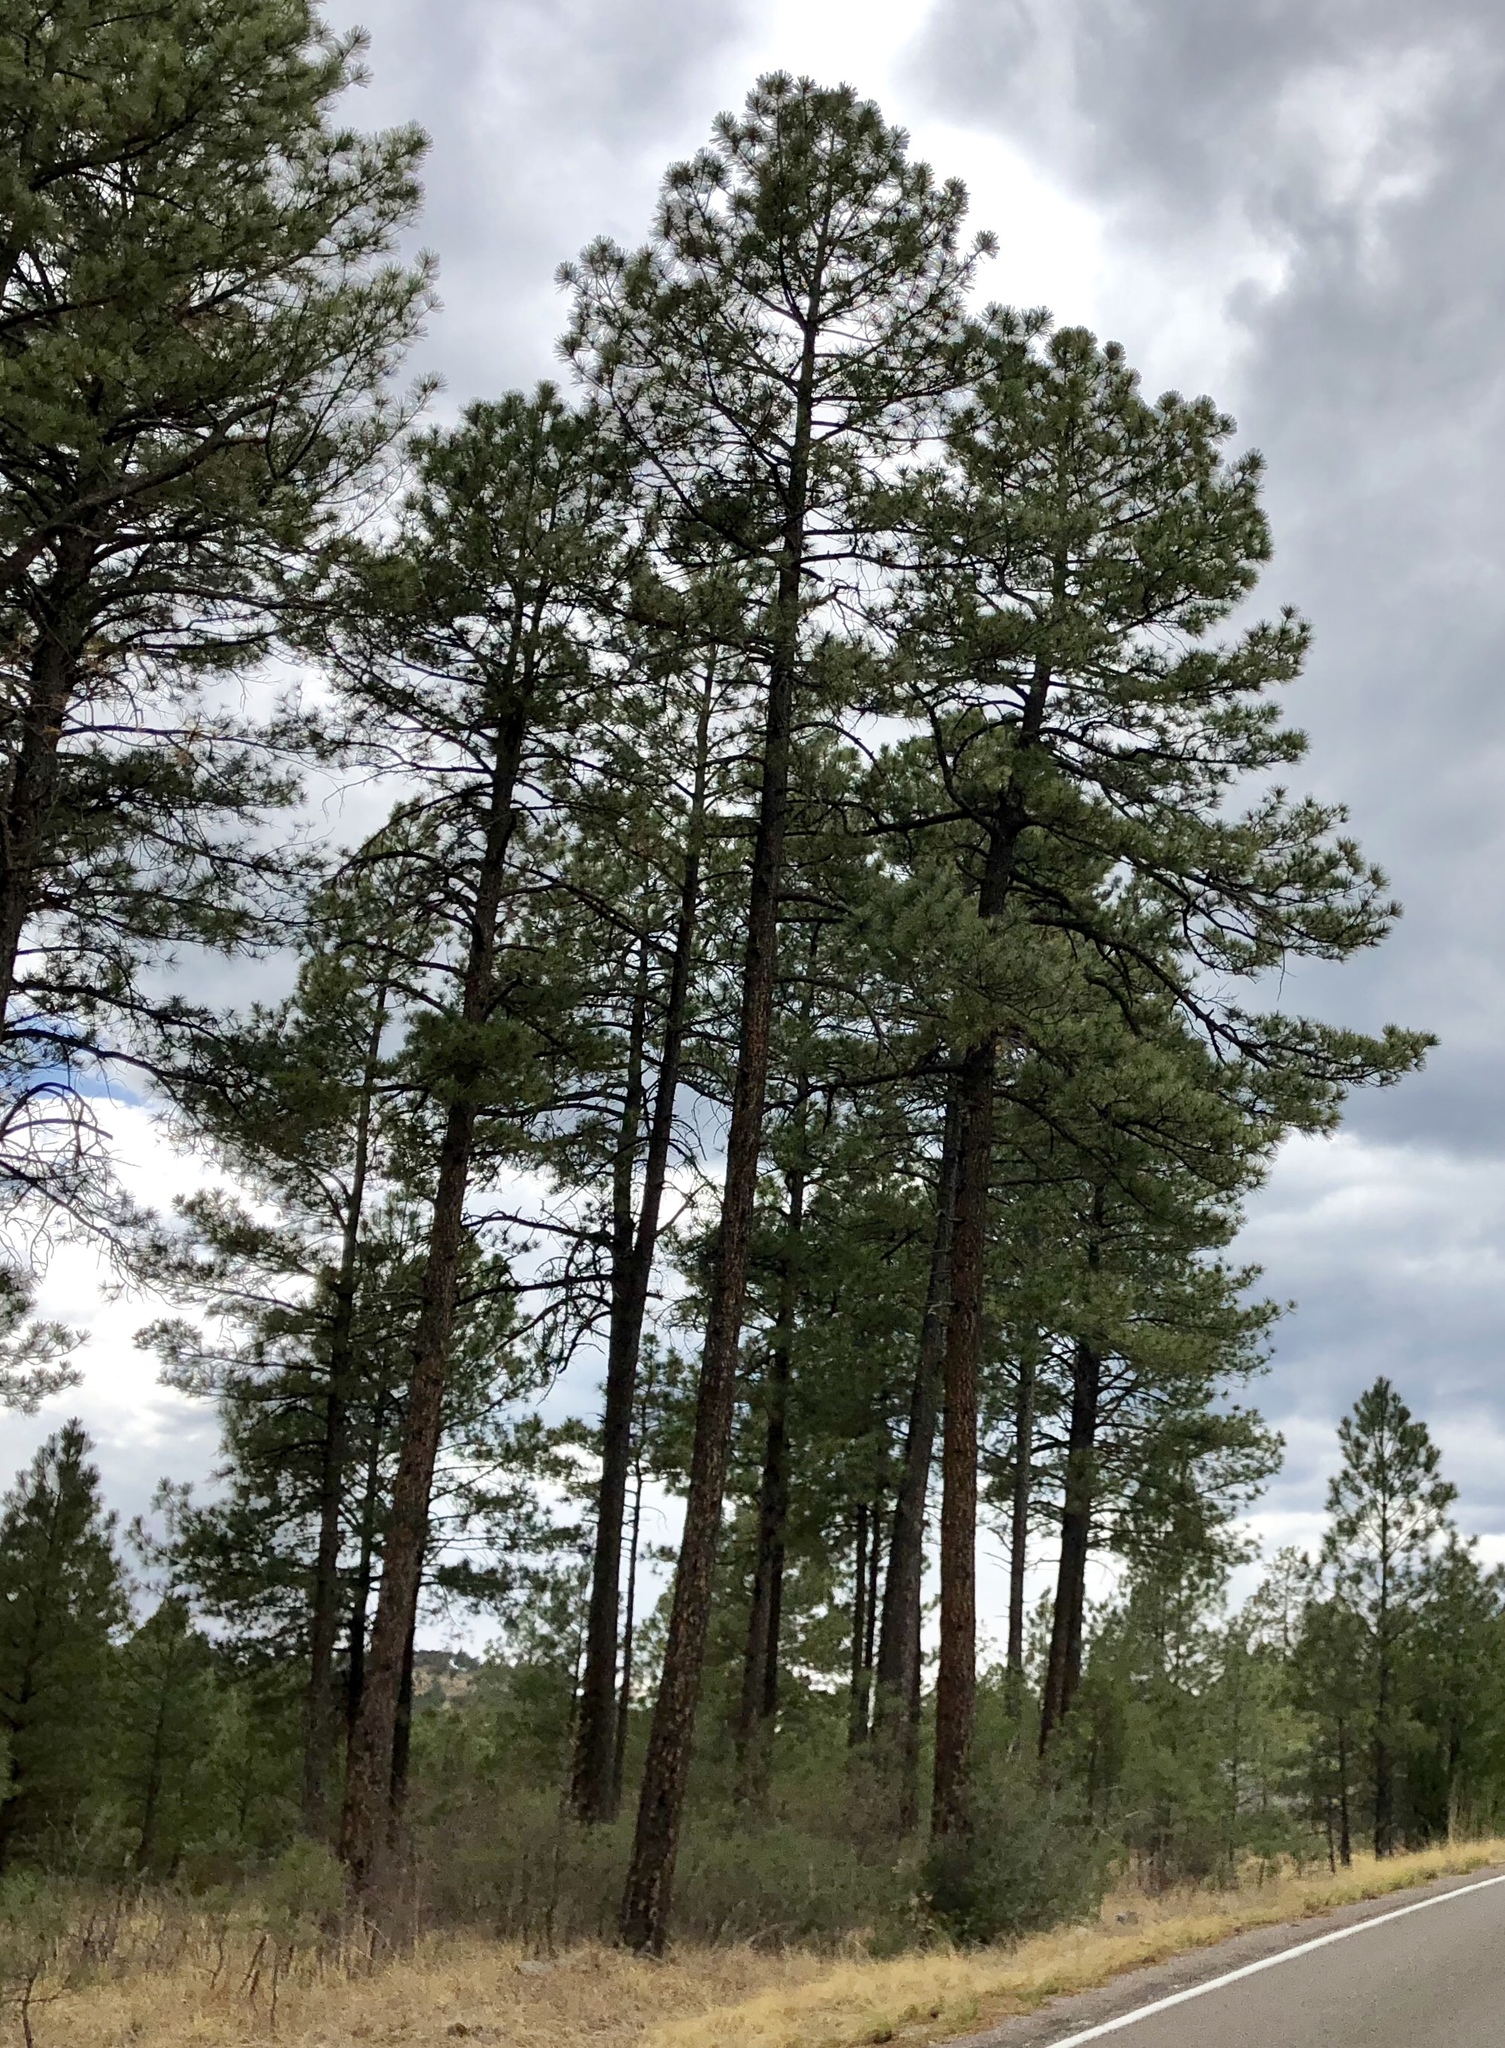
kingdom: Plantae
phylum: Tracheophyta
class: Pinopsida
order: Pinales
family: Pinaceae
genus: Pinus
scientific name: Pinus ponderosa
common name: Western yellow-pine
